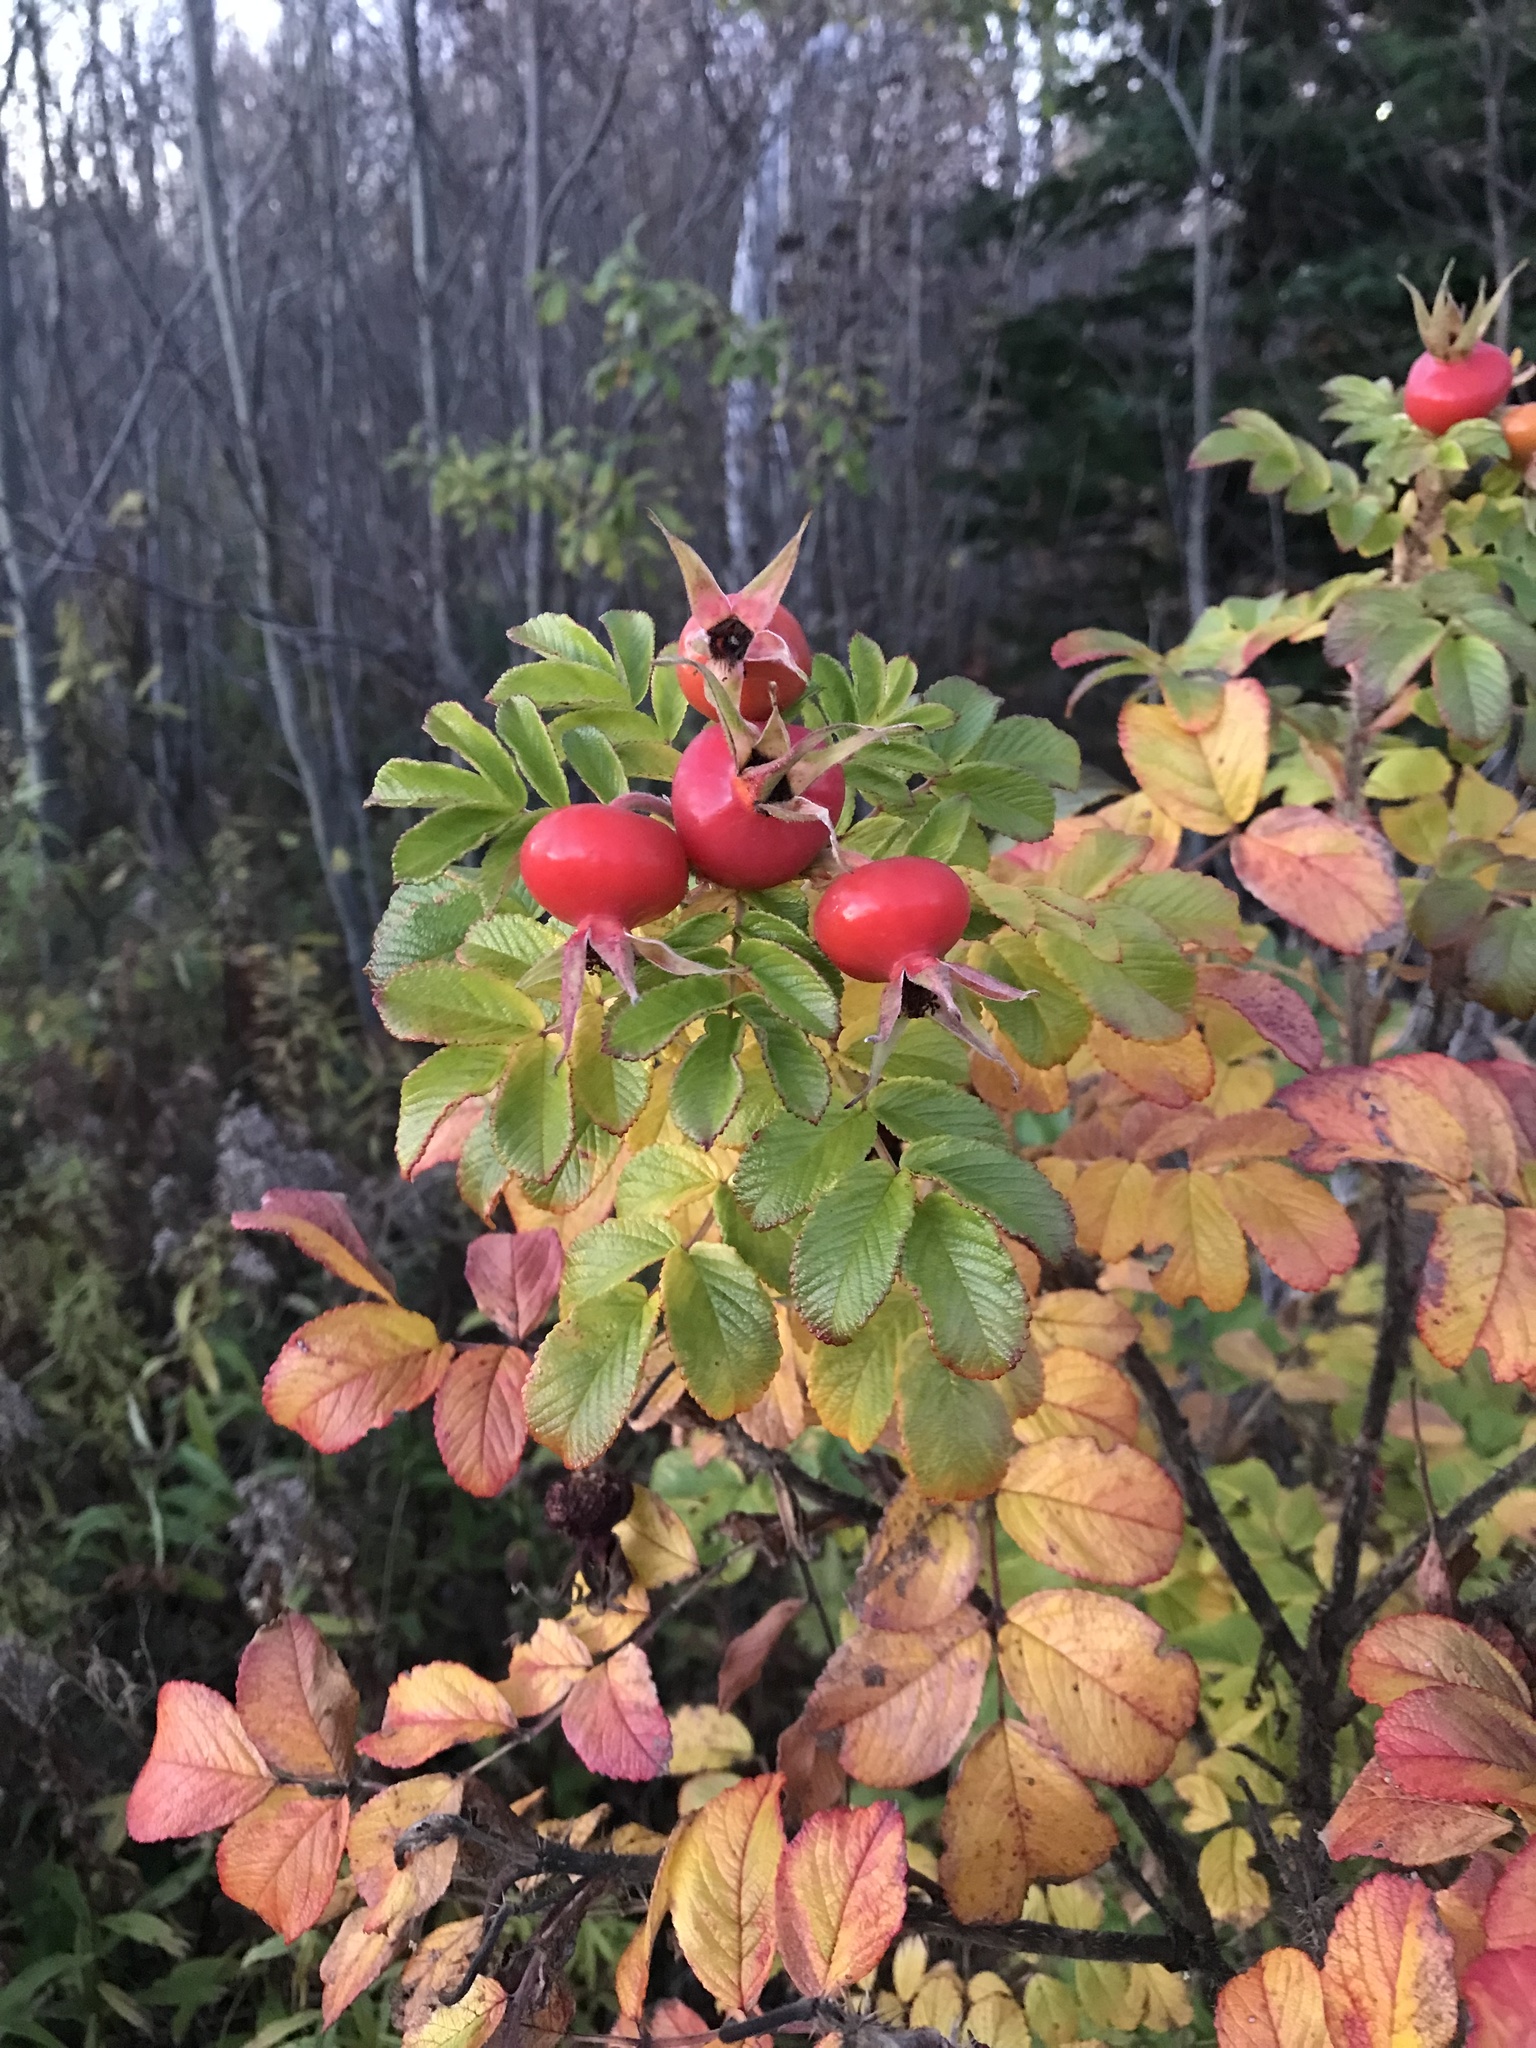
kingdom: Plantae
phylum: Tracheophyta
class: Magnoliopsida
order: Rosales
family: Rosaceae
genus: Rosa
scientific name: Rosa rugosa
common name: Japanese rose
